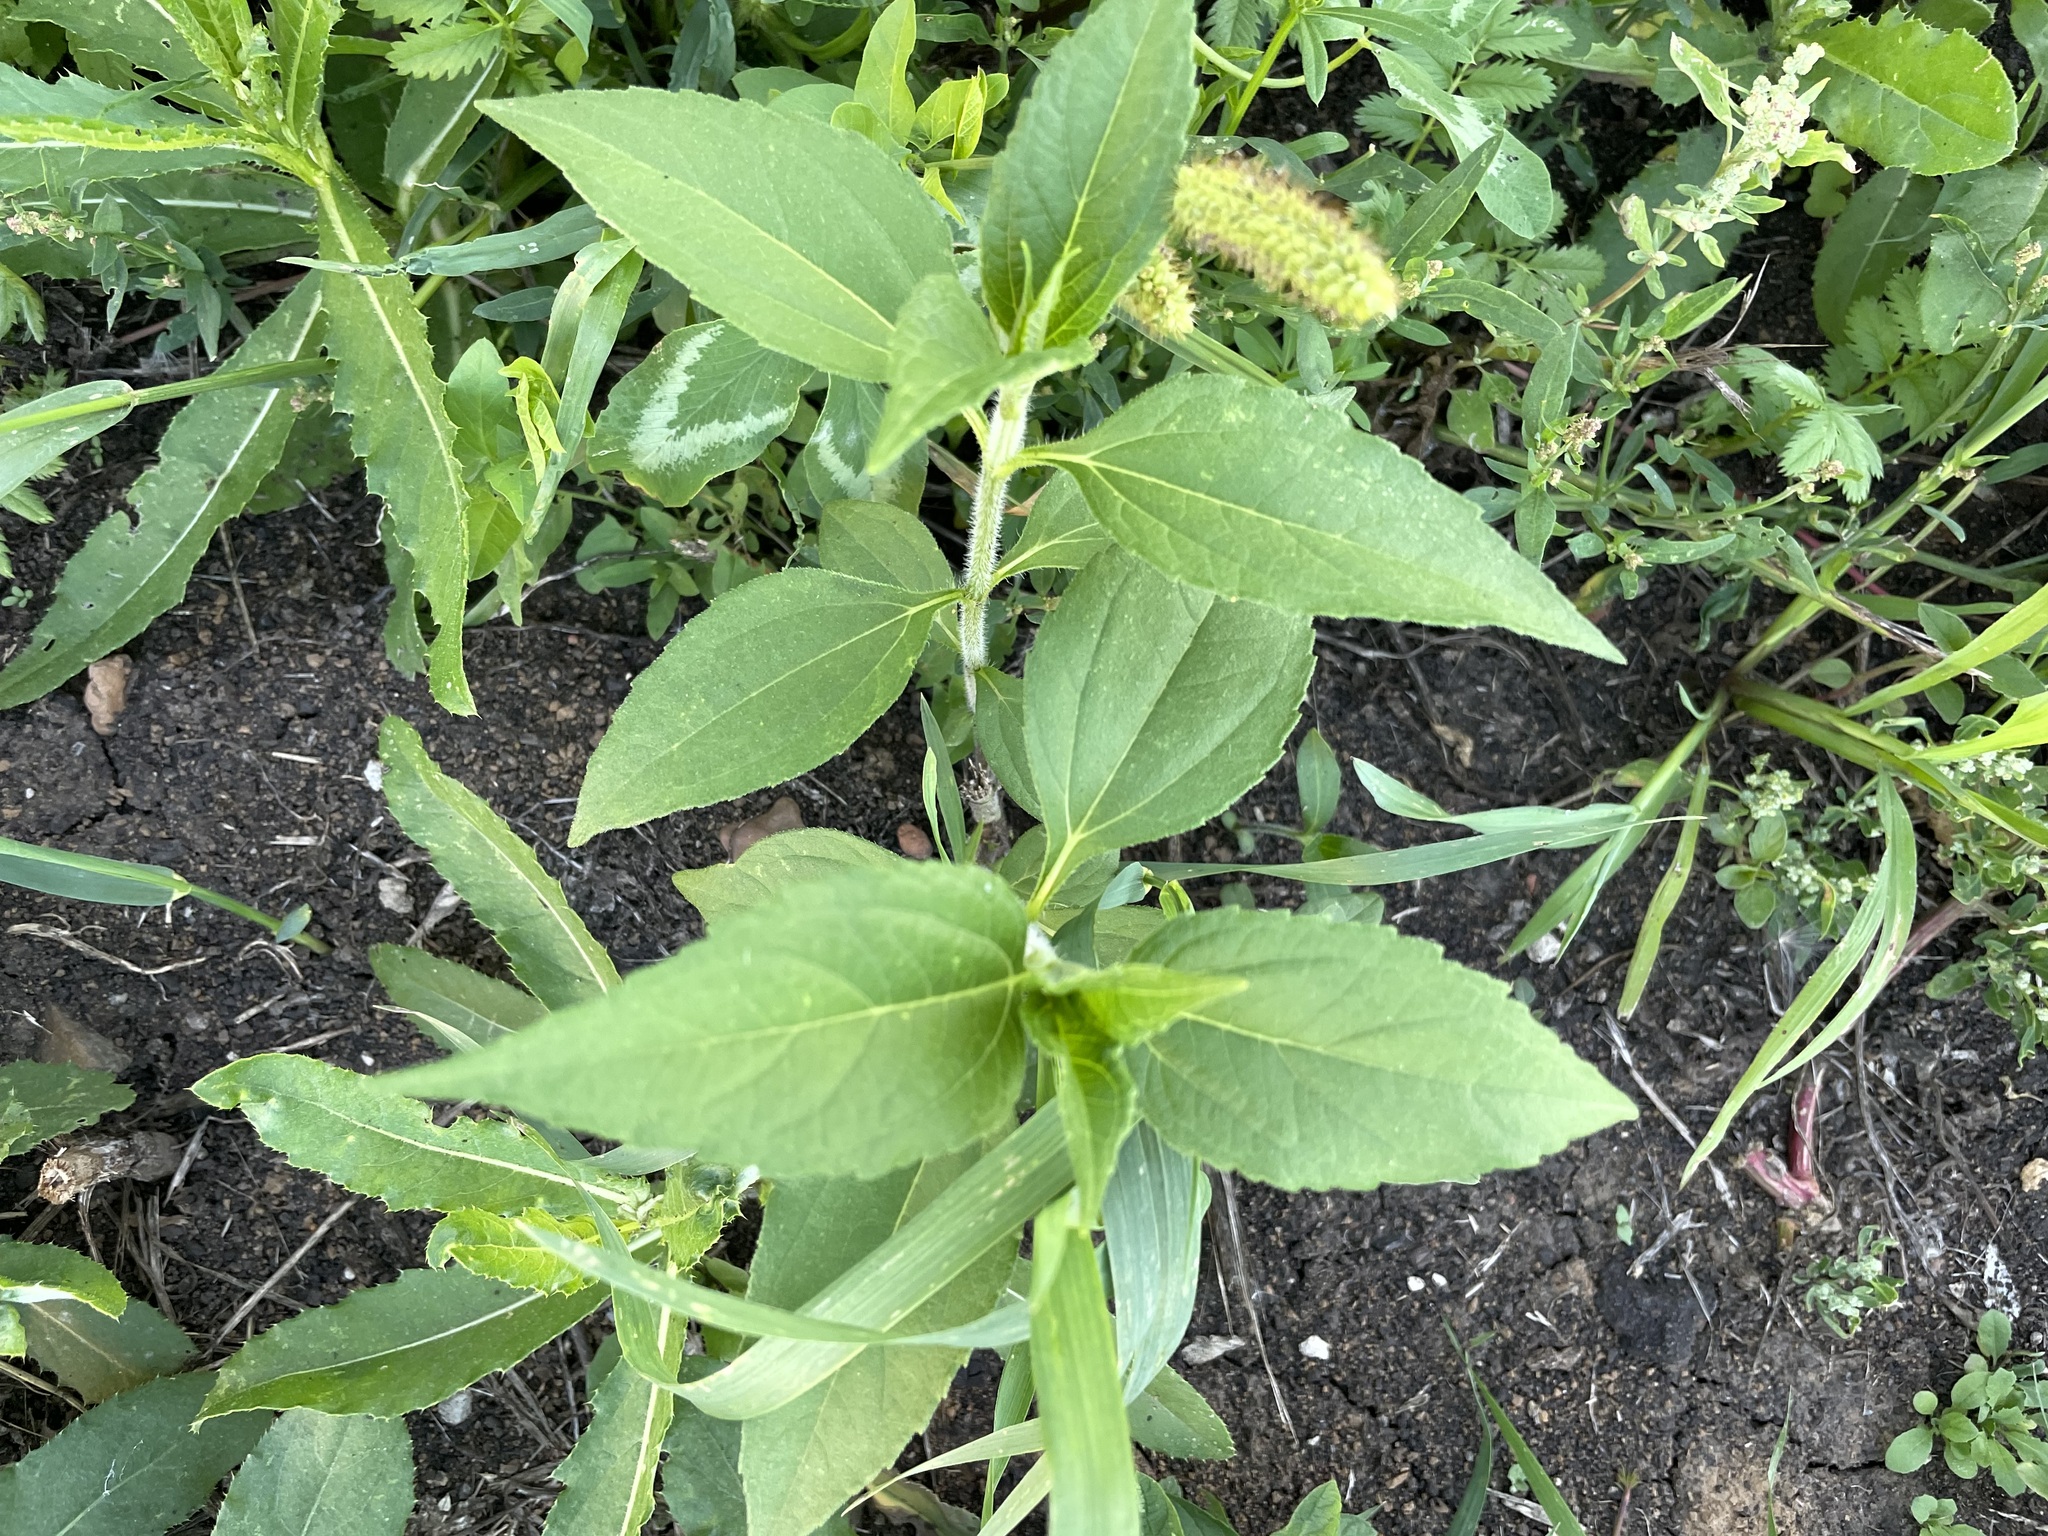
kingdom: Plantae
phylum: Tracheophyta
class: Magnoliopsida
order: Asterales
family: Asteraceae
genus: Helianthus
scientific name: Helianthus tuberosus
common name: Jerusalem artichoke
